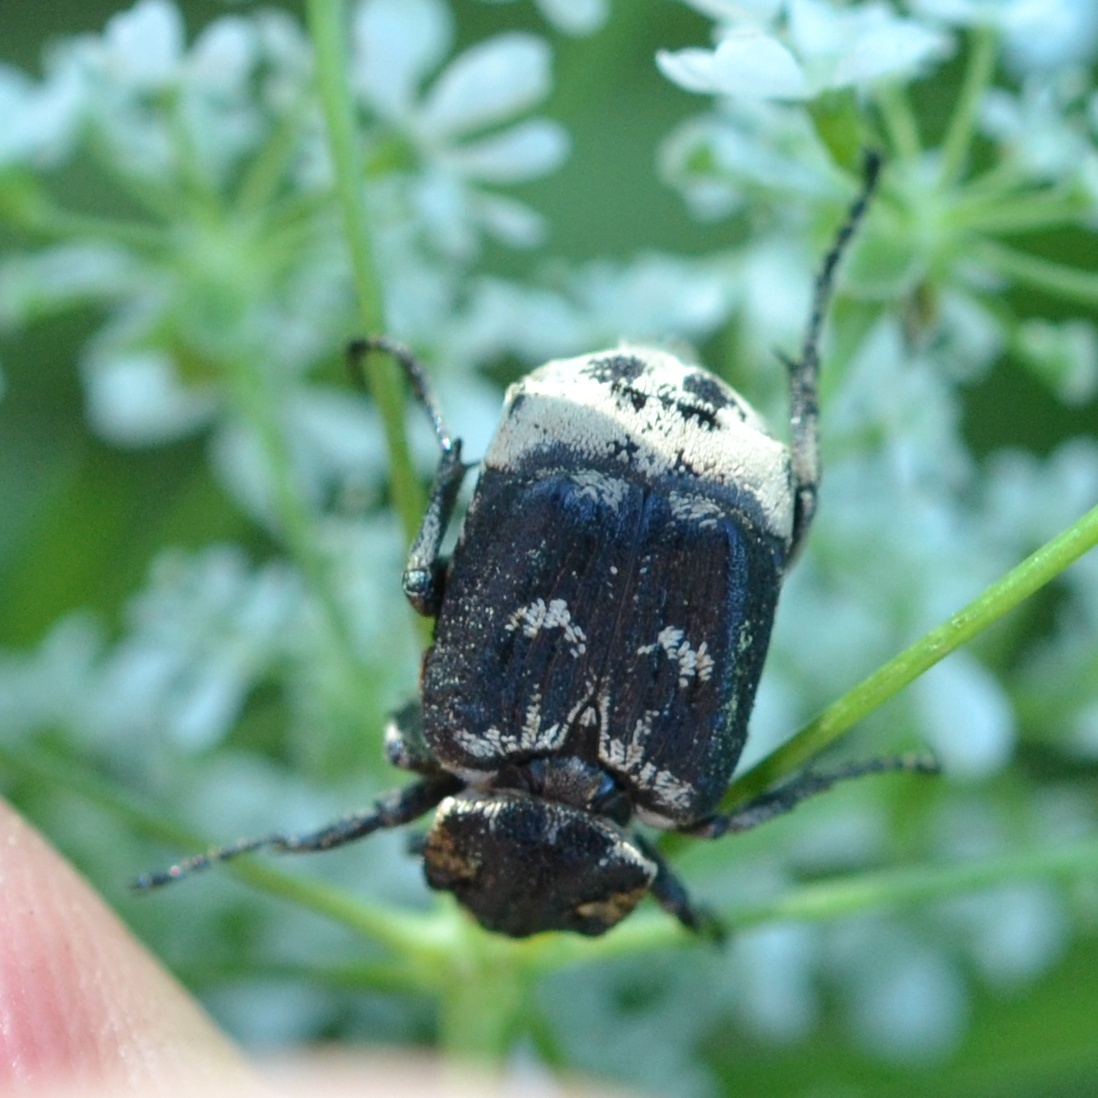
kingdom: Animalia
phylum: Arthropoda
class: Insecta
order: Coleoptera
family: Scarabaeidae
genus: Valgus
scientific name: Valgus hemipterus
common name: Bug flower chafer
